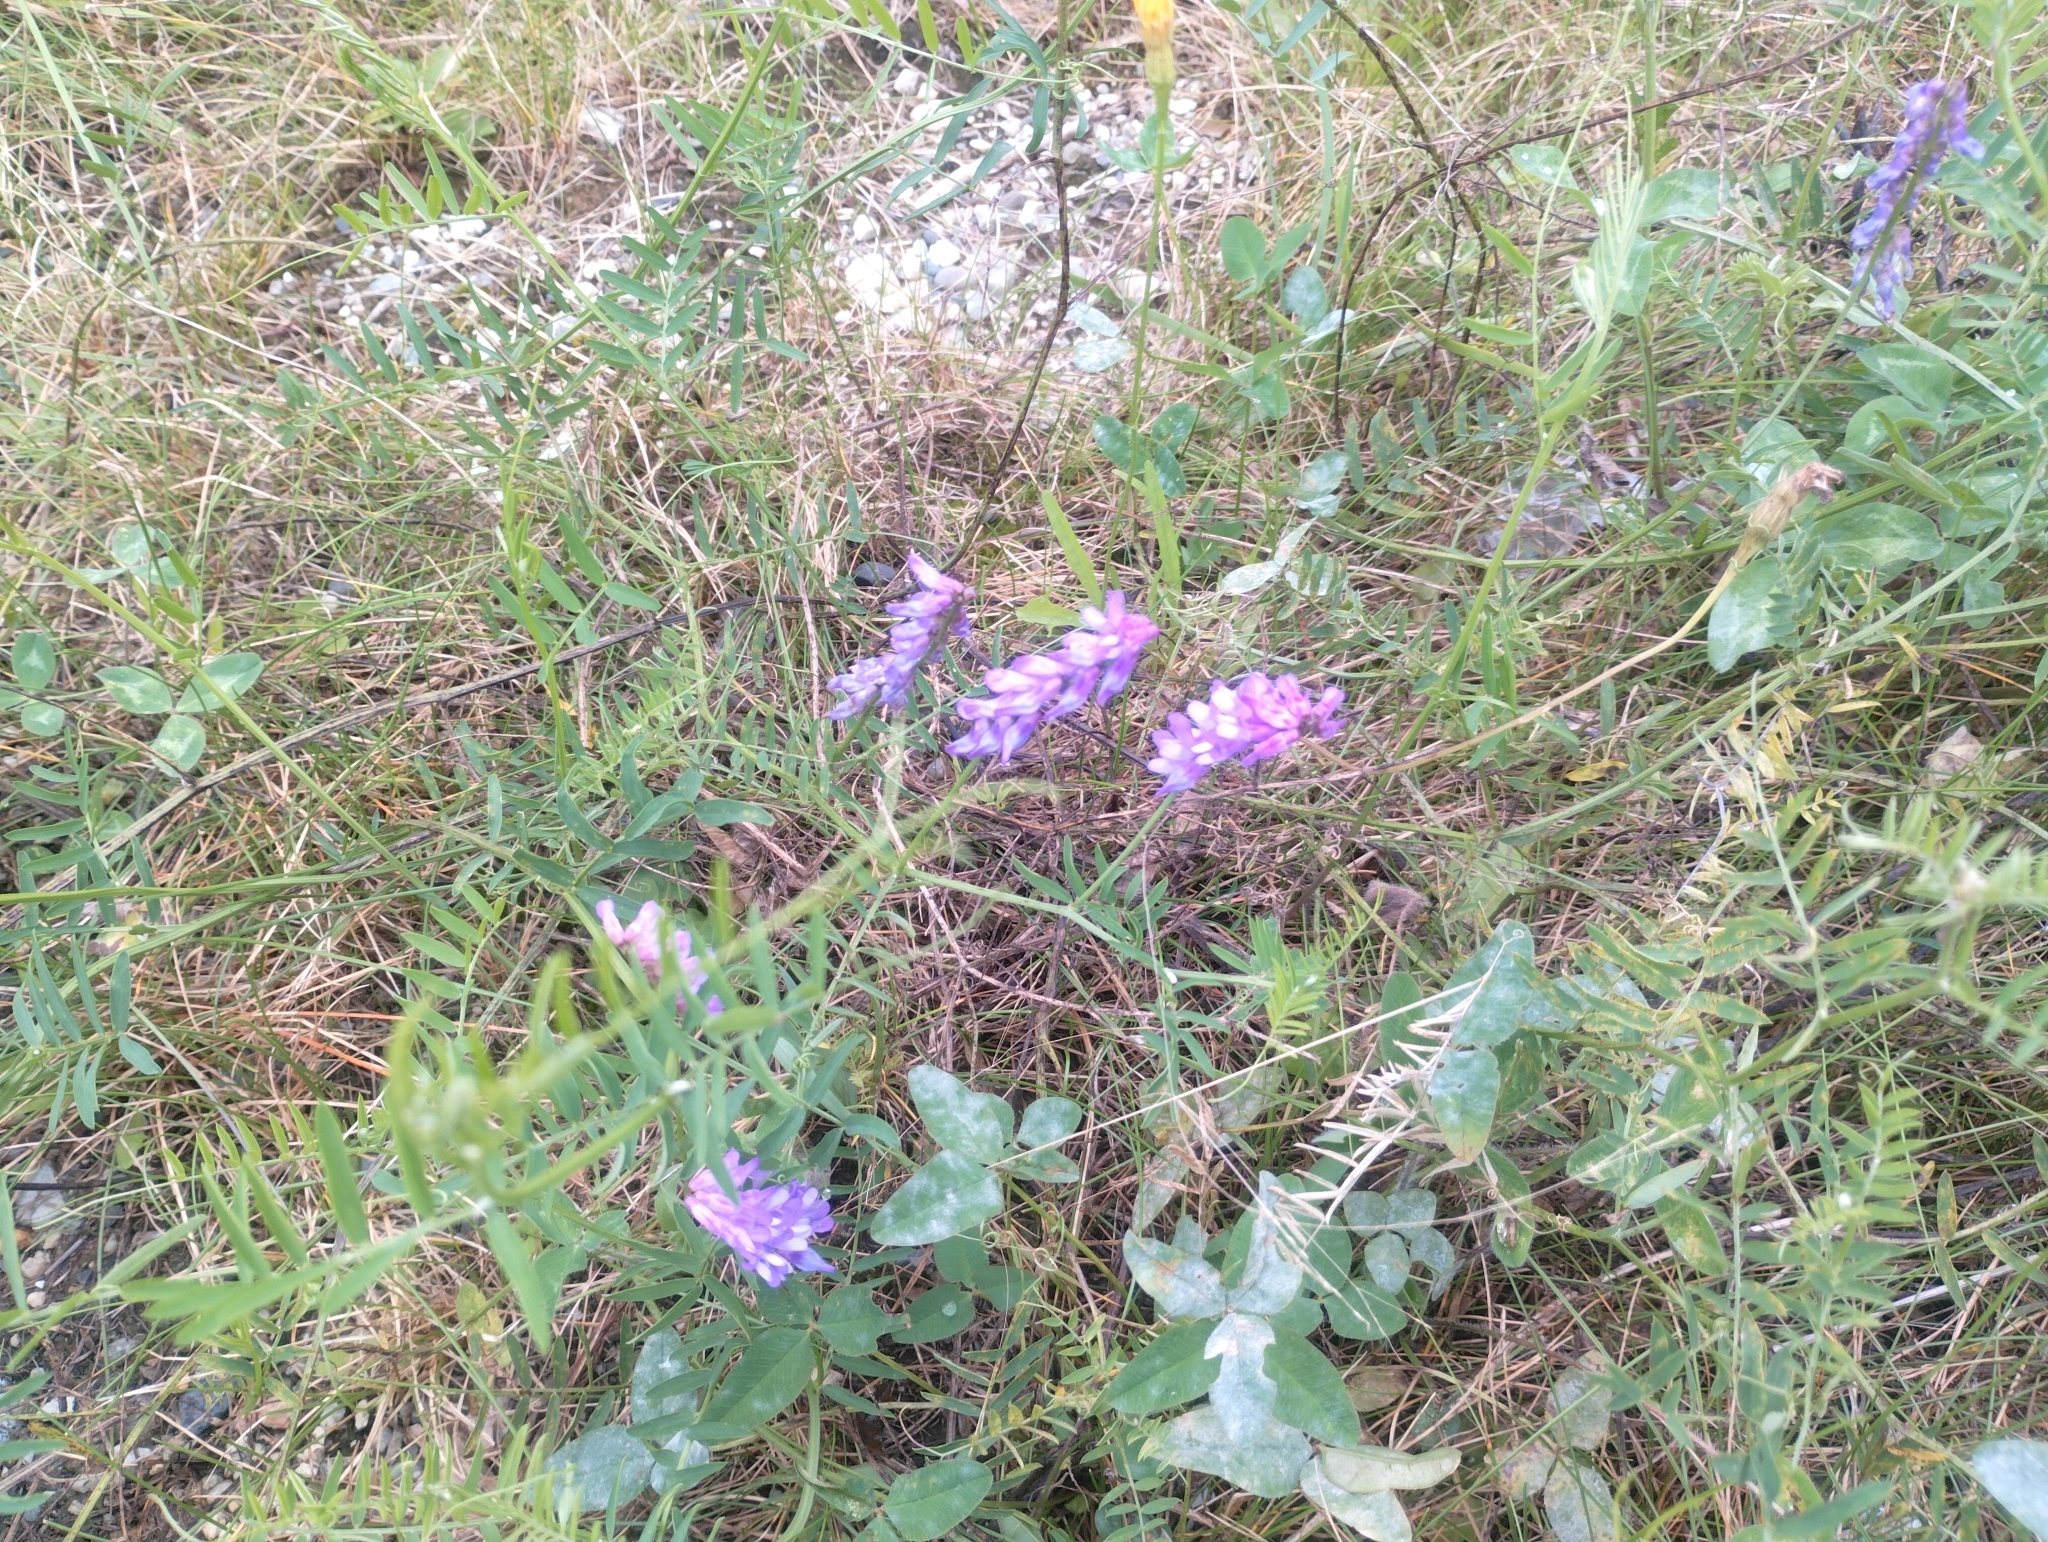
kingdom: Plantae
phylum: Tracheophyta
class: Magnoliopsida
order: Fabales
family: Fabaceae
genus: Vicia
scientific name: Vicia cracca
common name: Bird vetch
